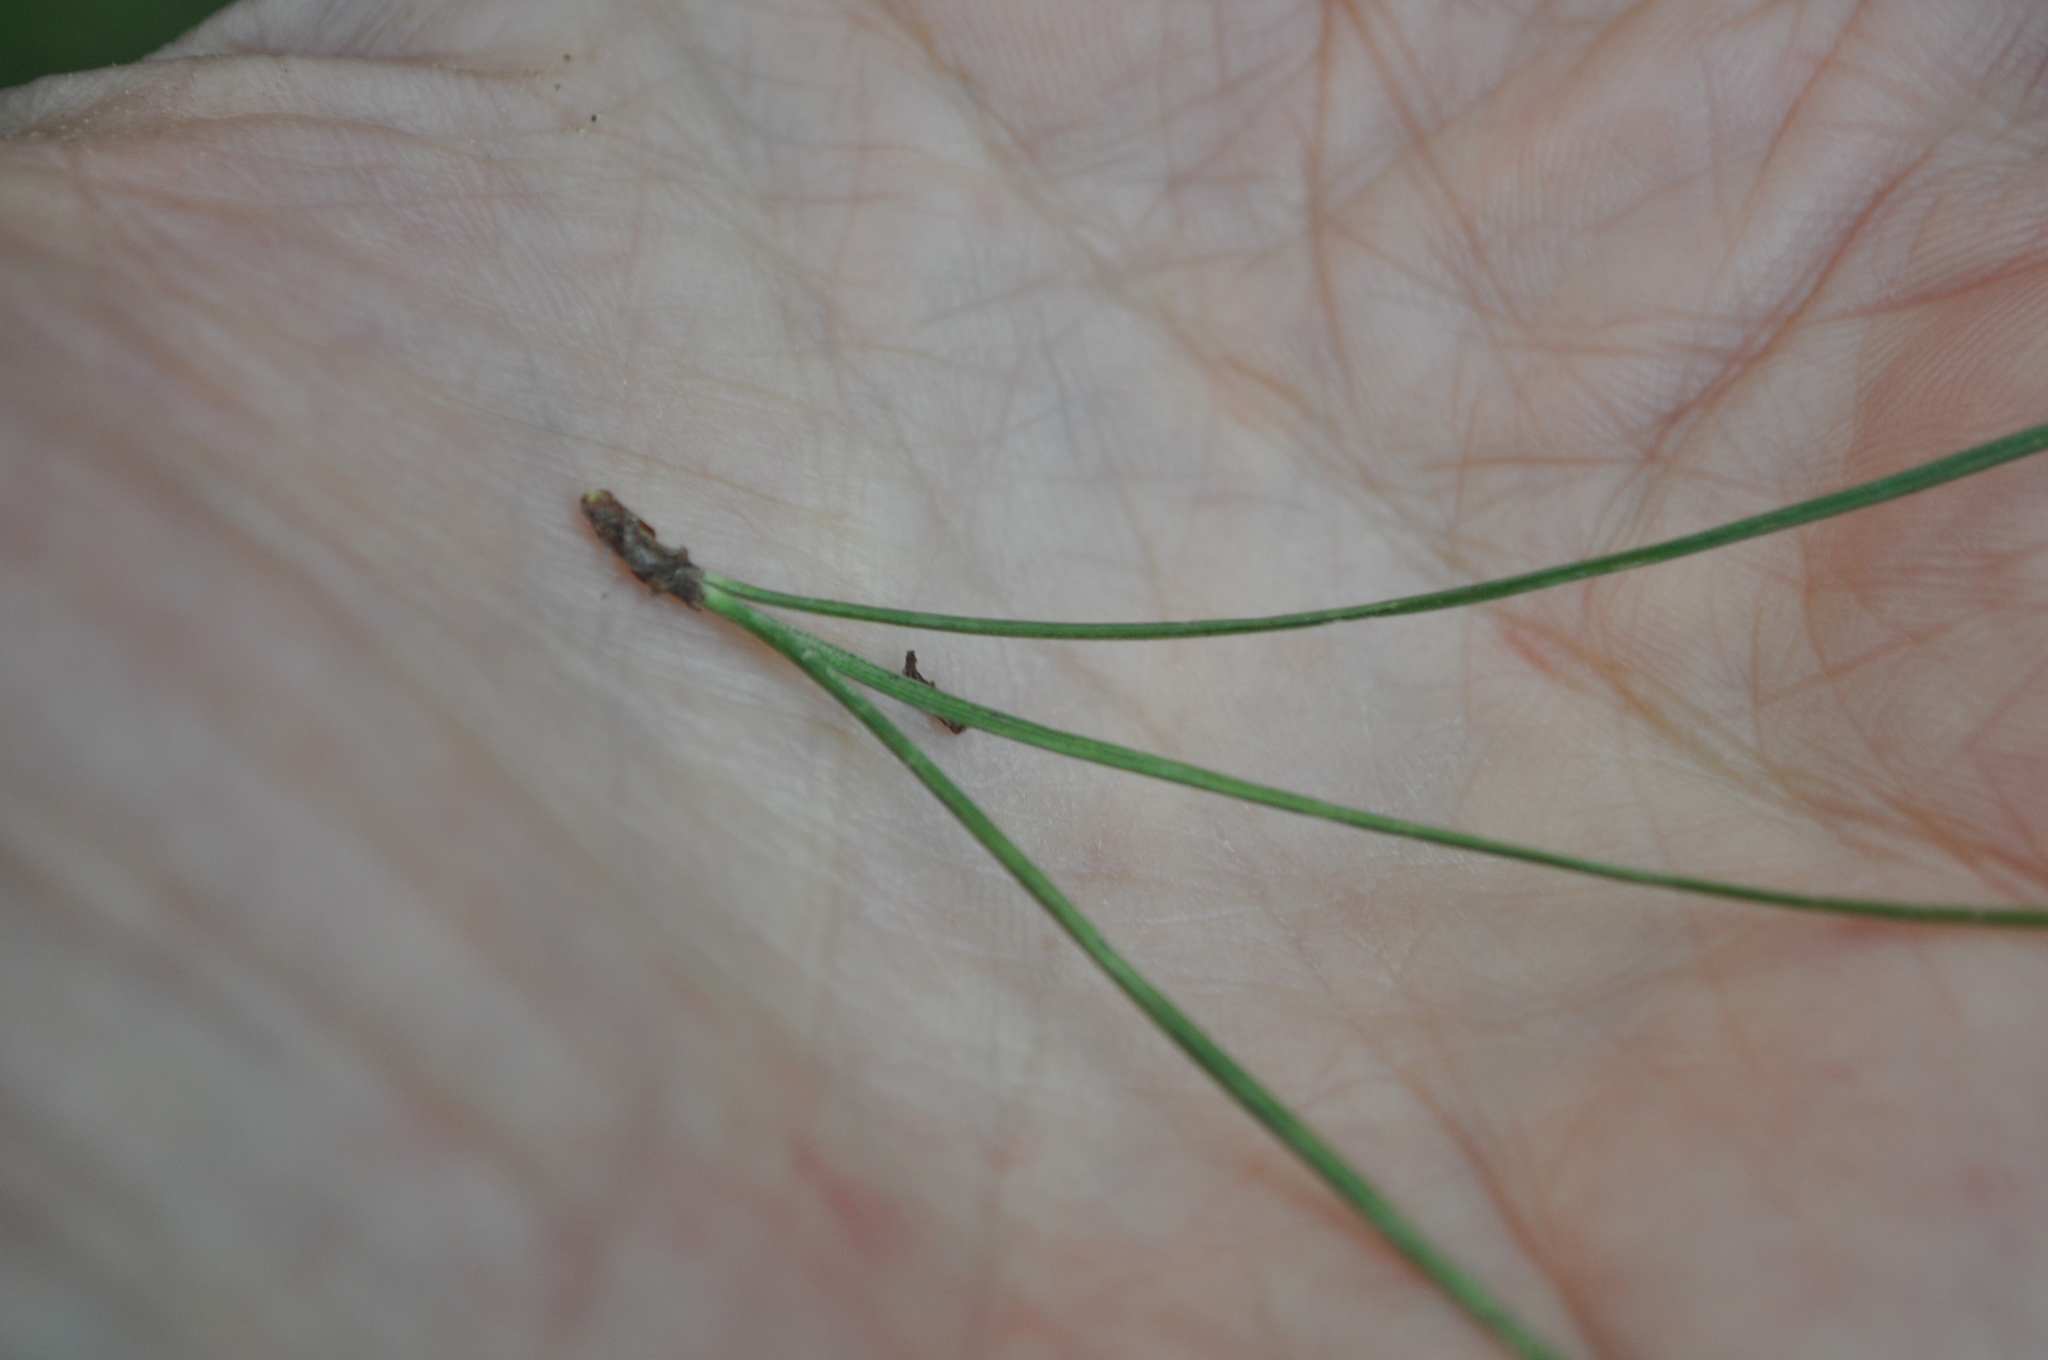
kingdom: Plantae
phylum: Tracheophyta
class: Pinopsida
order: Pinales
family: Pinaceae
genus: Pinus
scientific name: Pinus radiata
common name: Monterey pine
